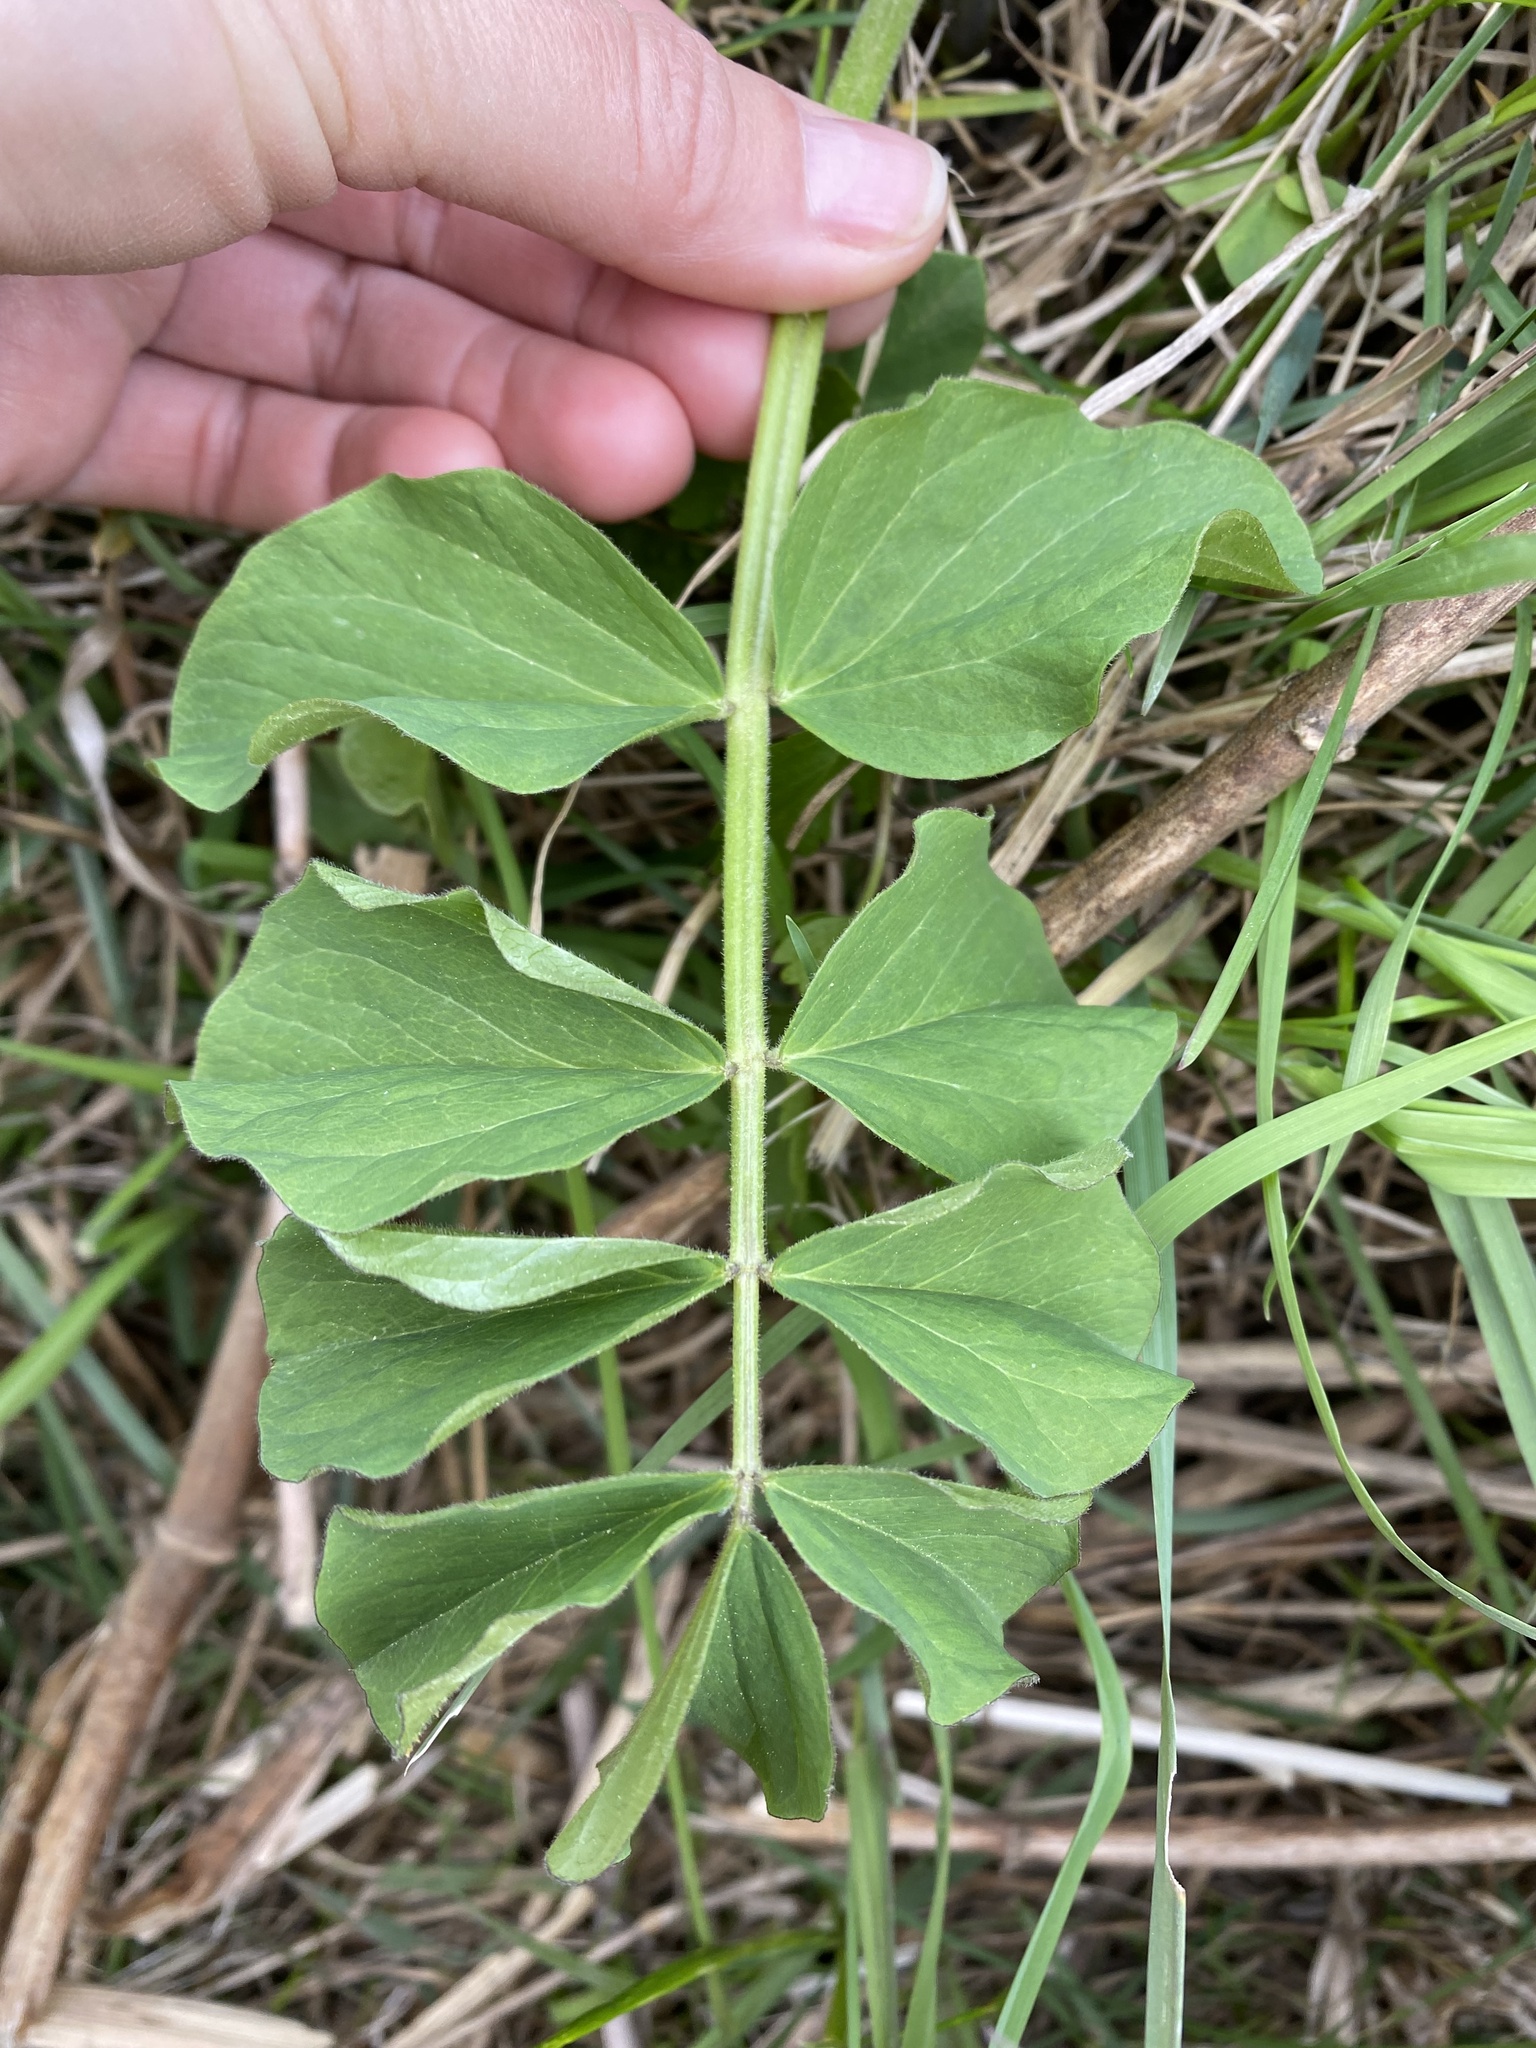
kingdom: Plantae
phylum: Tracheophyta
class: Magnoliopsida
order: Fabales
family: Fabaceae
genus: Galega
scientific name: Galega orientalis
